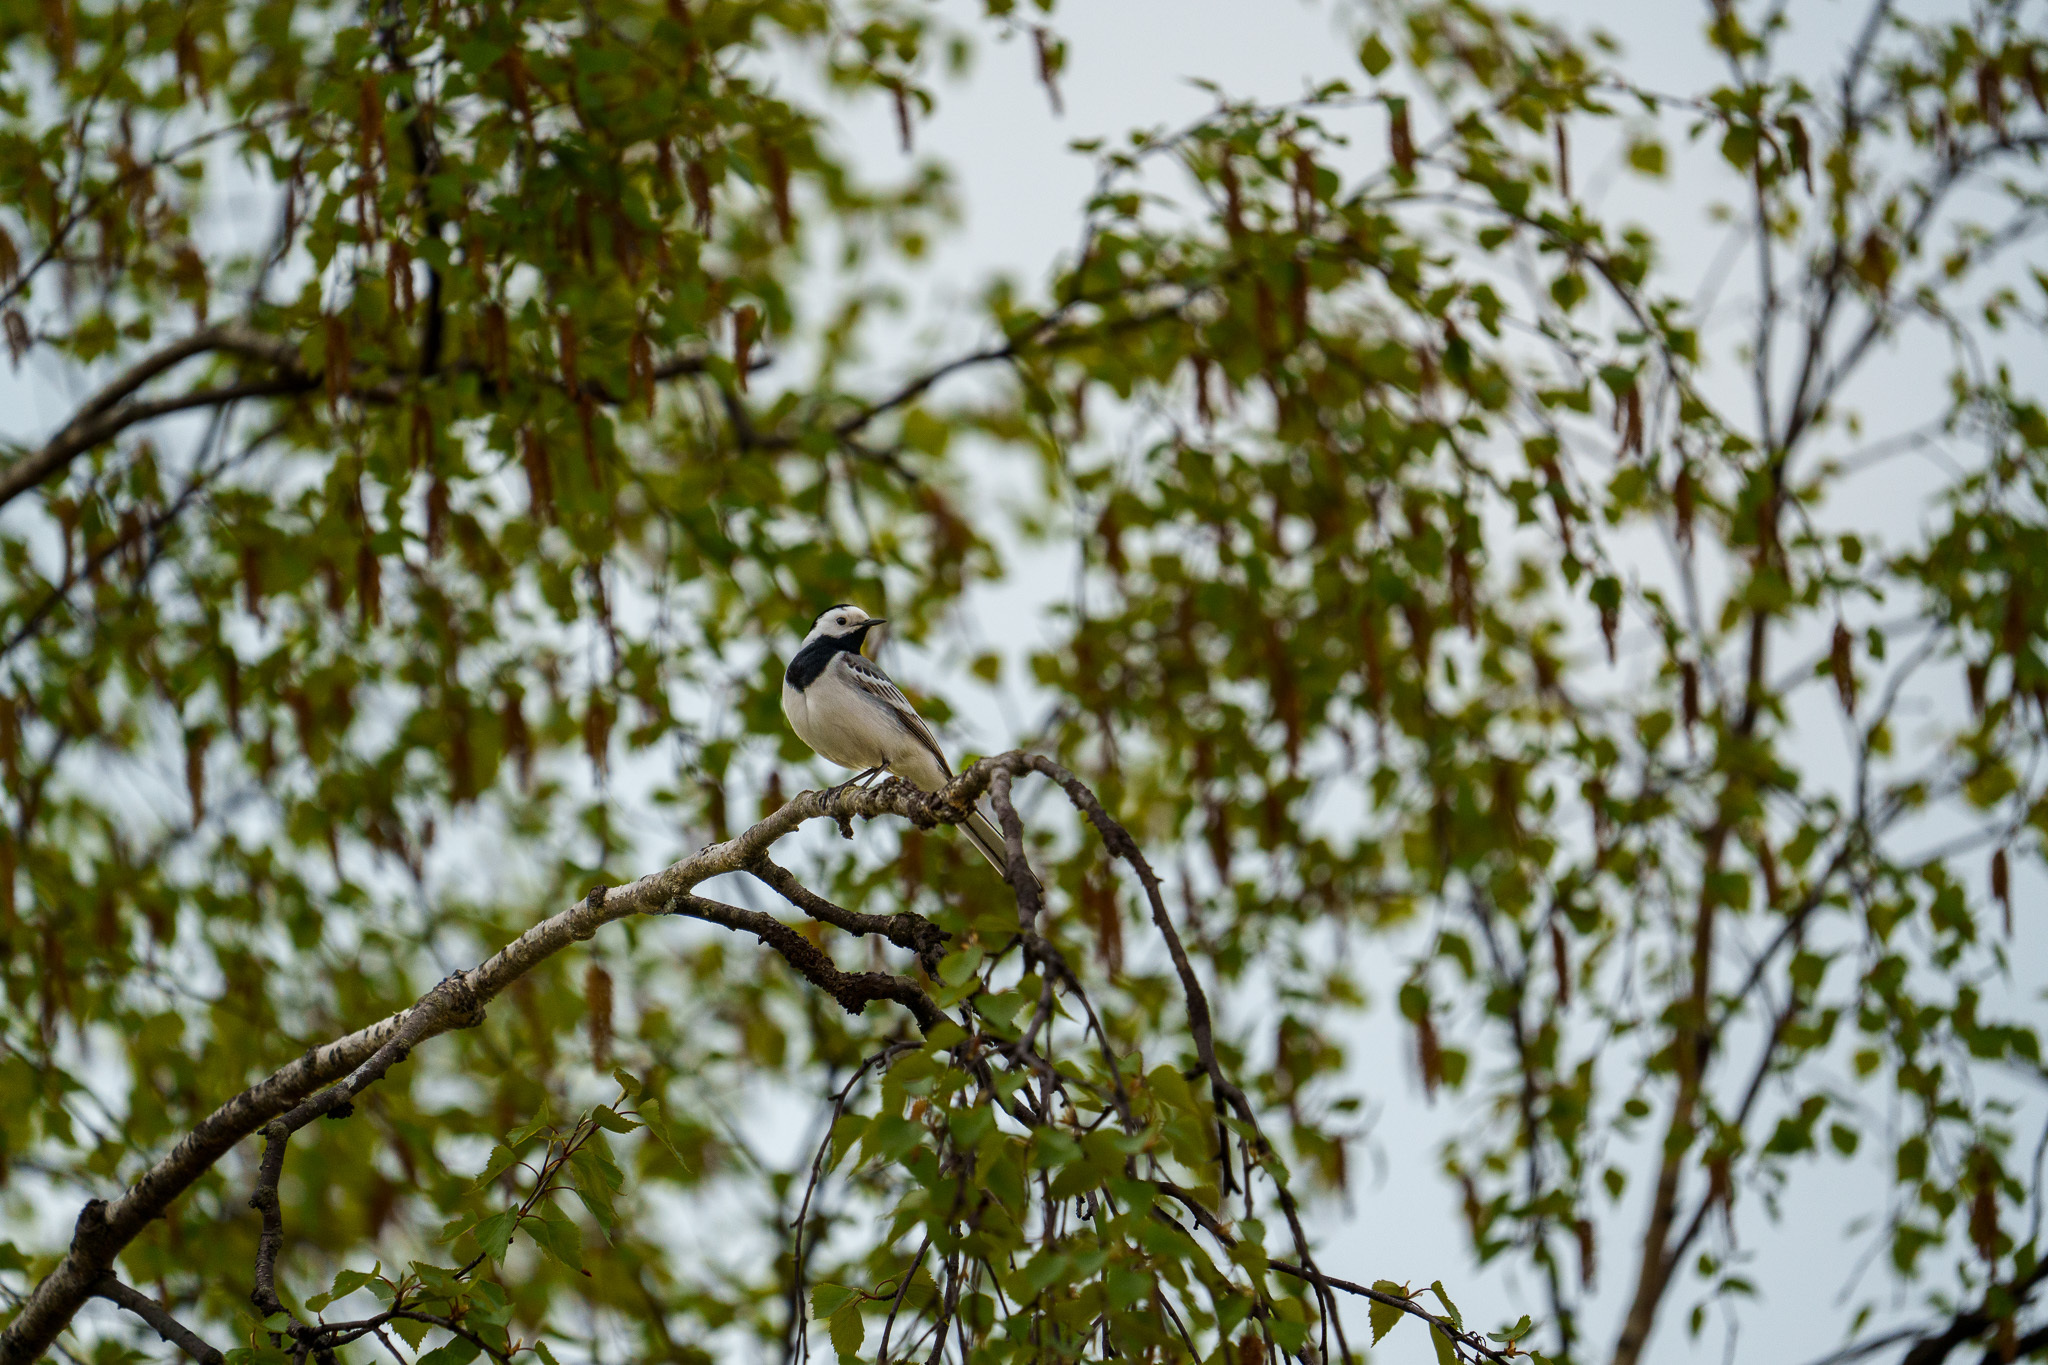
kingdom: Animalia
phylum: Chordata
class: Aves
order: Passeriformes
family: Motacillidae
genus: Motacilla
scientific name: Motacilla alba
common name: White wagtail
